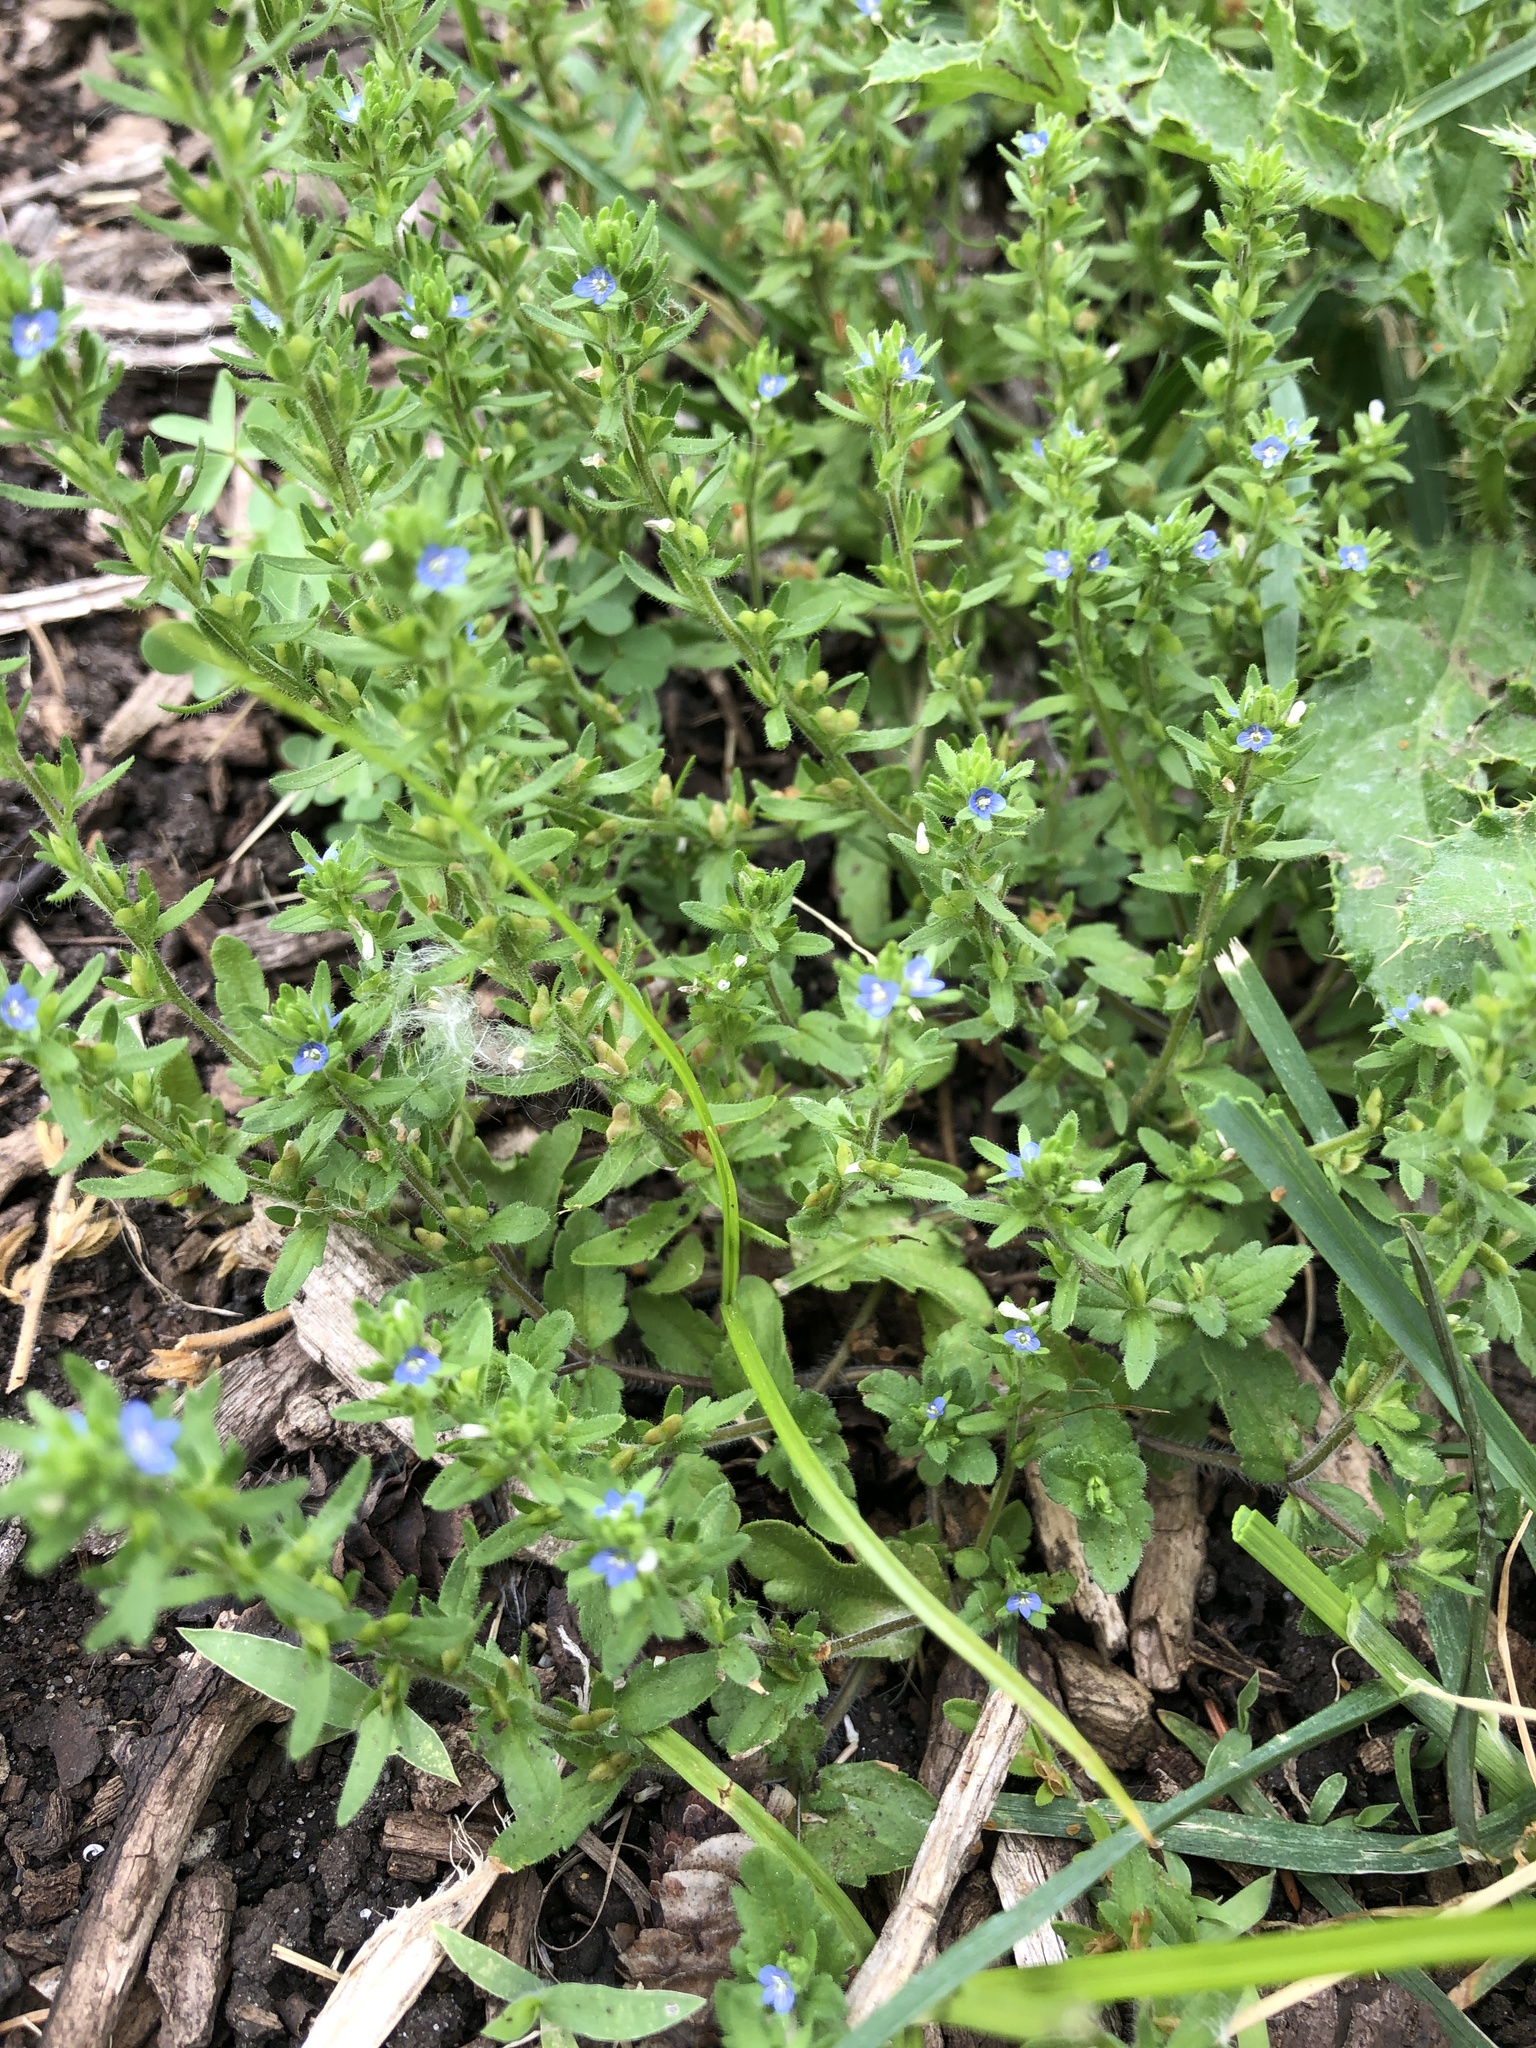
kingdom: Plantae
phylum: Tracheophyta
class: Magnoliopsida
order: Lamiales
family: Plantaginaceae
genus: Veronica
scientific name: Veronica arvensis
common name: Corn speedwell
